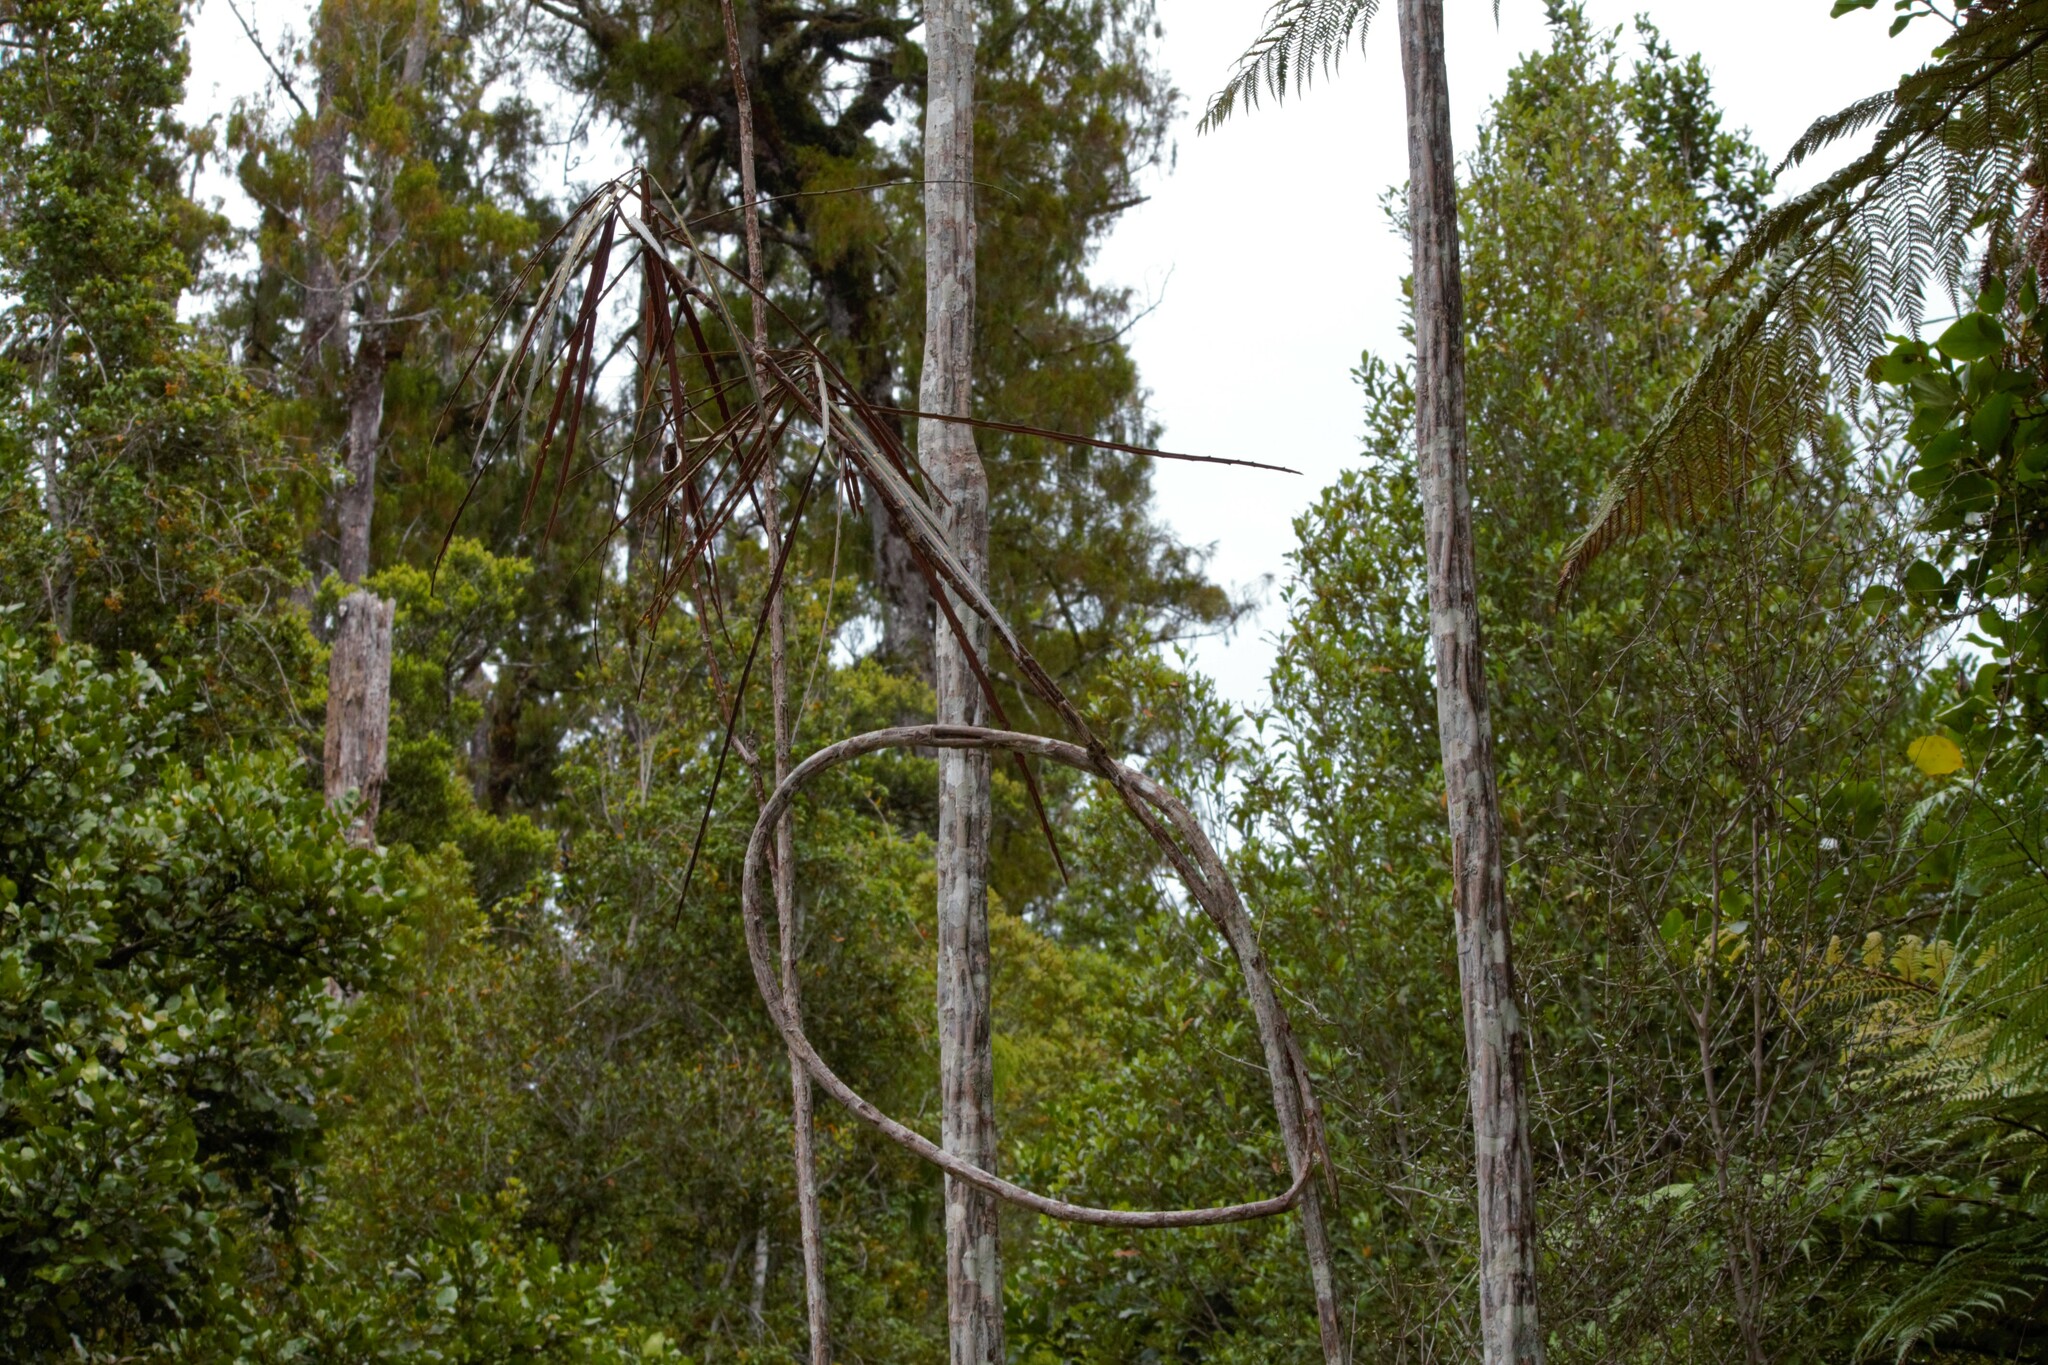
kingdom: Plantae
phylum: Tracheophyta
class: Magnoliopsida
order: Apiales
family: Araliaceae
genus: Pseudopanax
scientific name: Pseudopanax crassifolius
